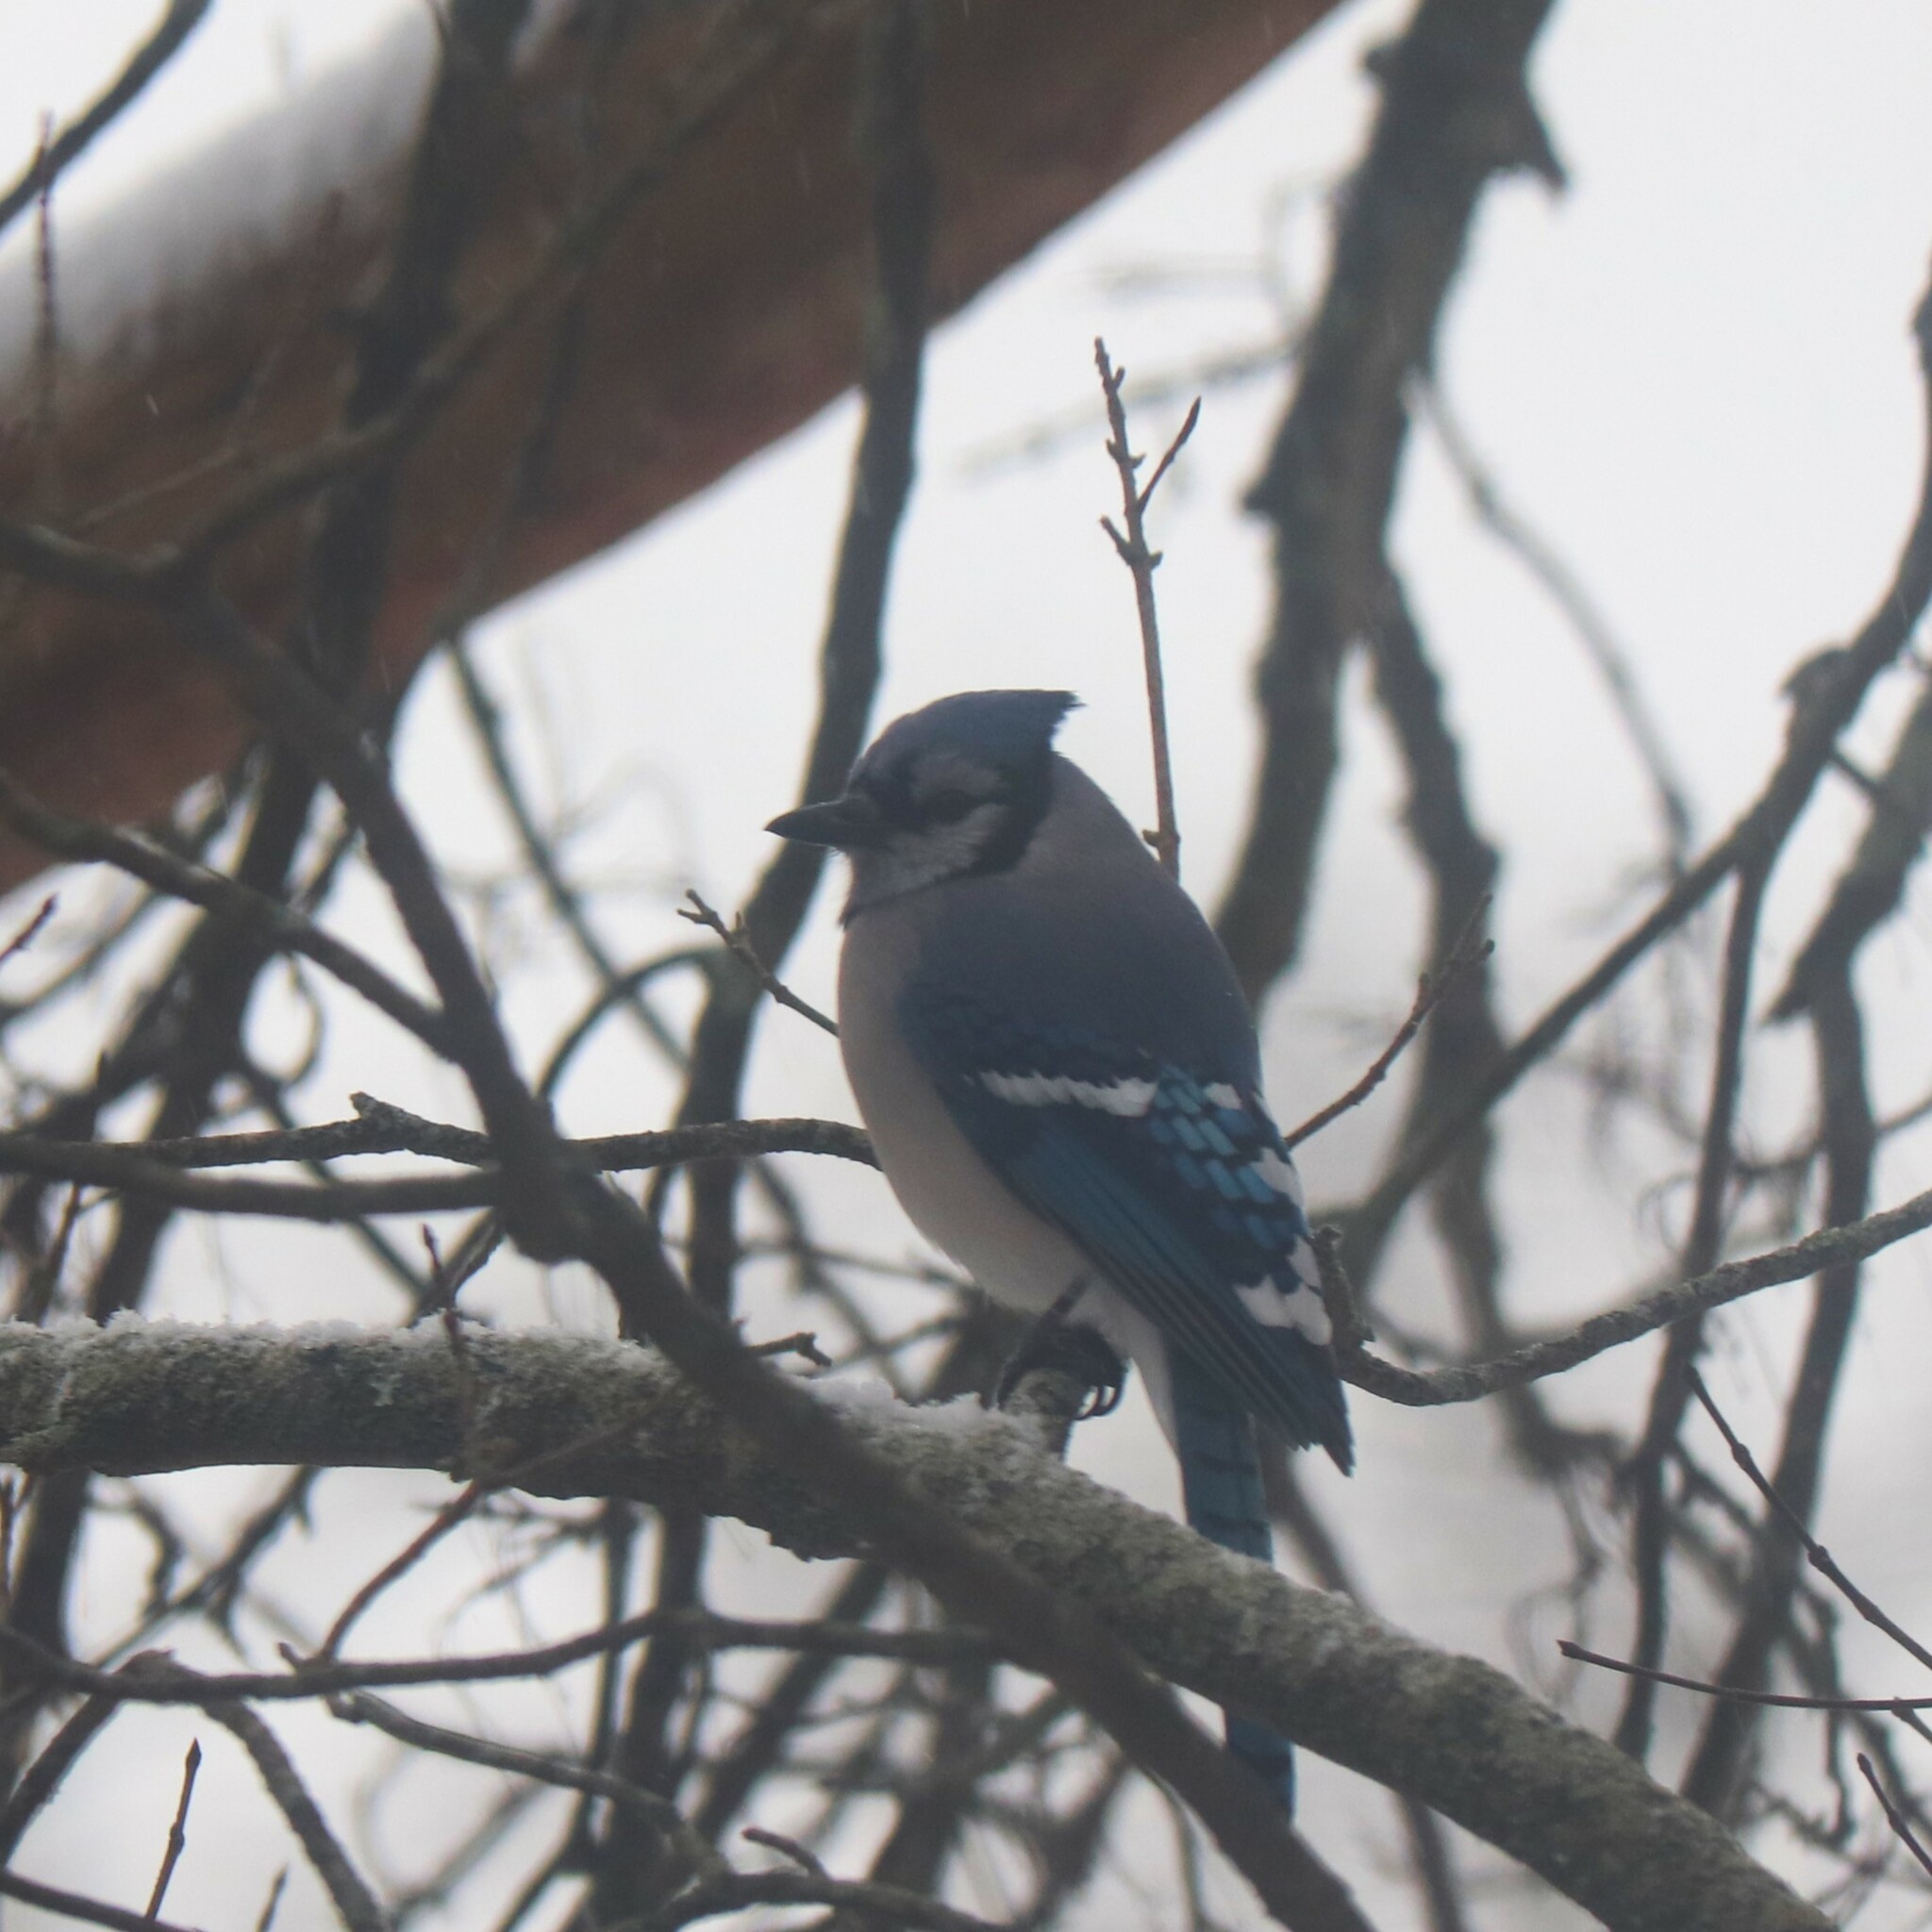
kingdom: Animalia
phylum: Chordata
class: Aves
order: Passeriformes
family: Corvidae
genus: Cyanocitta
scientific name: Cyanocitta cristata
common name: Blue jay
